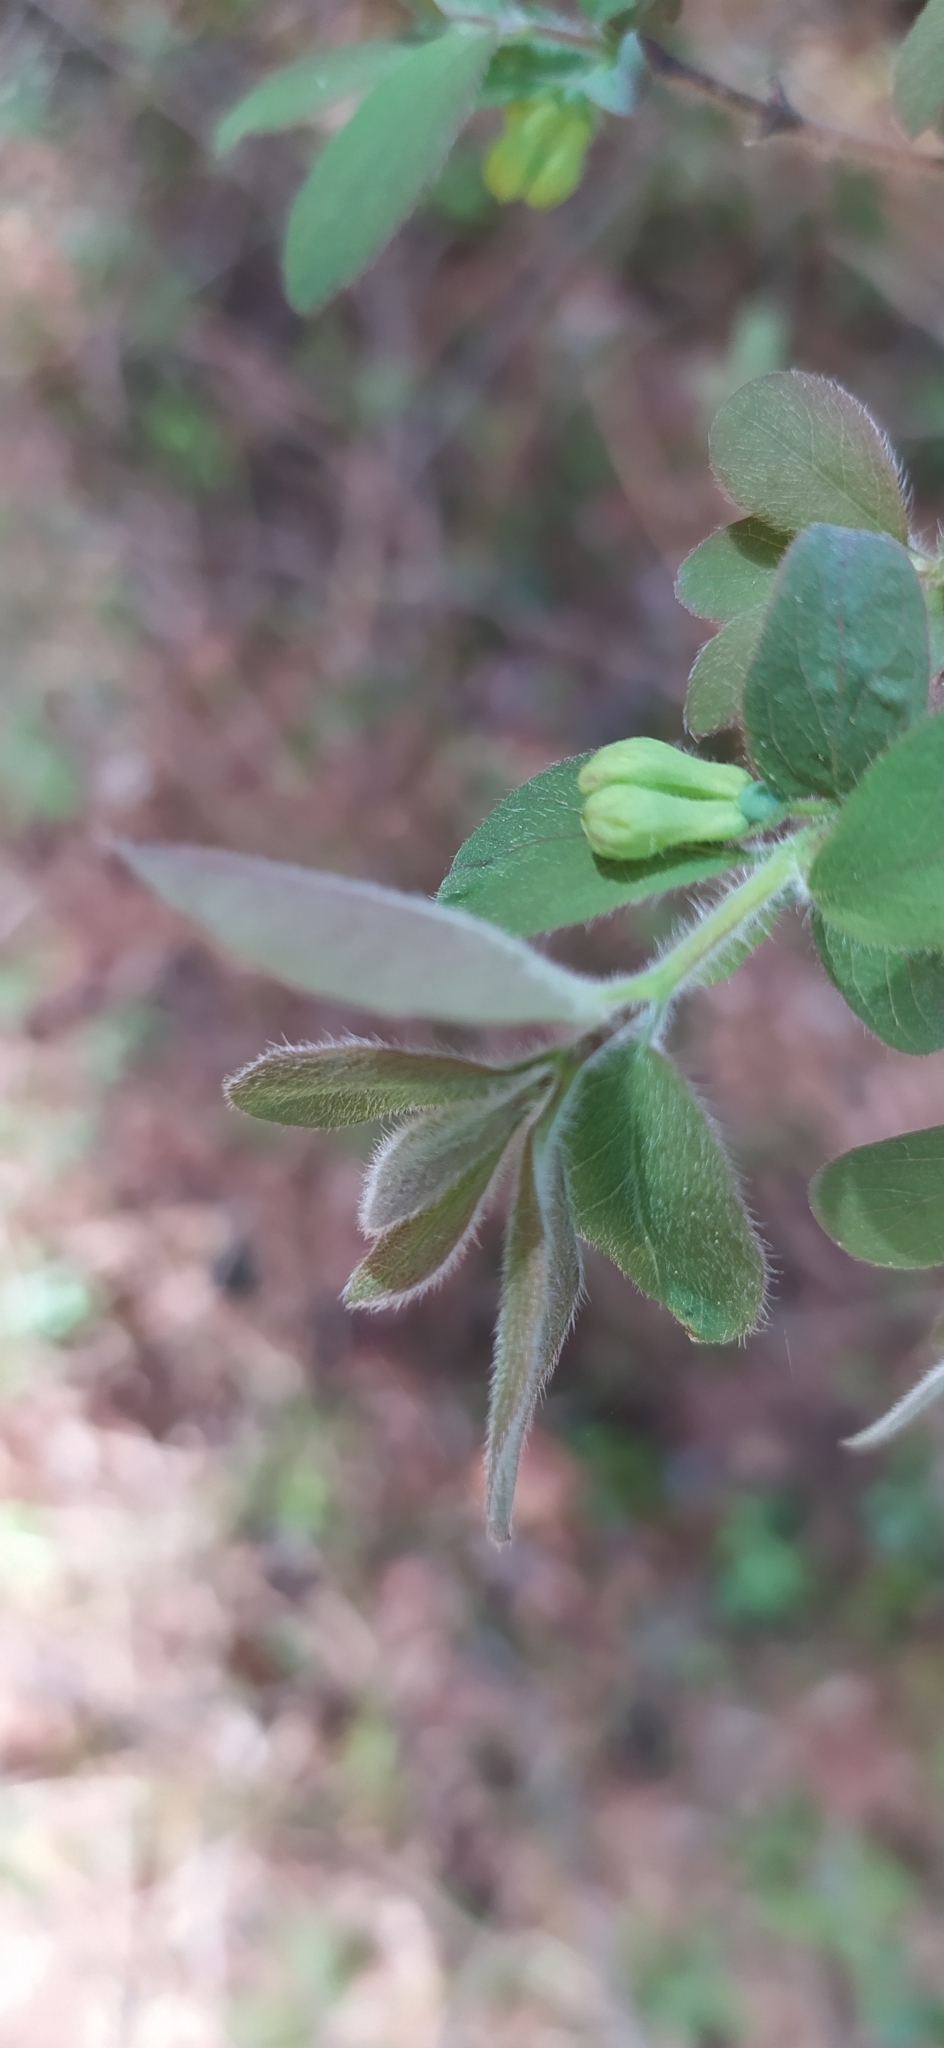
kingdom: Plantae
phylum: Tracheophyta
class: Magnoliopsida
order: Dipsacales
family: Caprifoliaceae
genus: Lonicera
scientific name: Lonicera caerulea
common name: Blue honeysuckle
